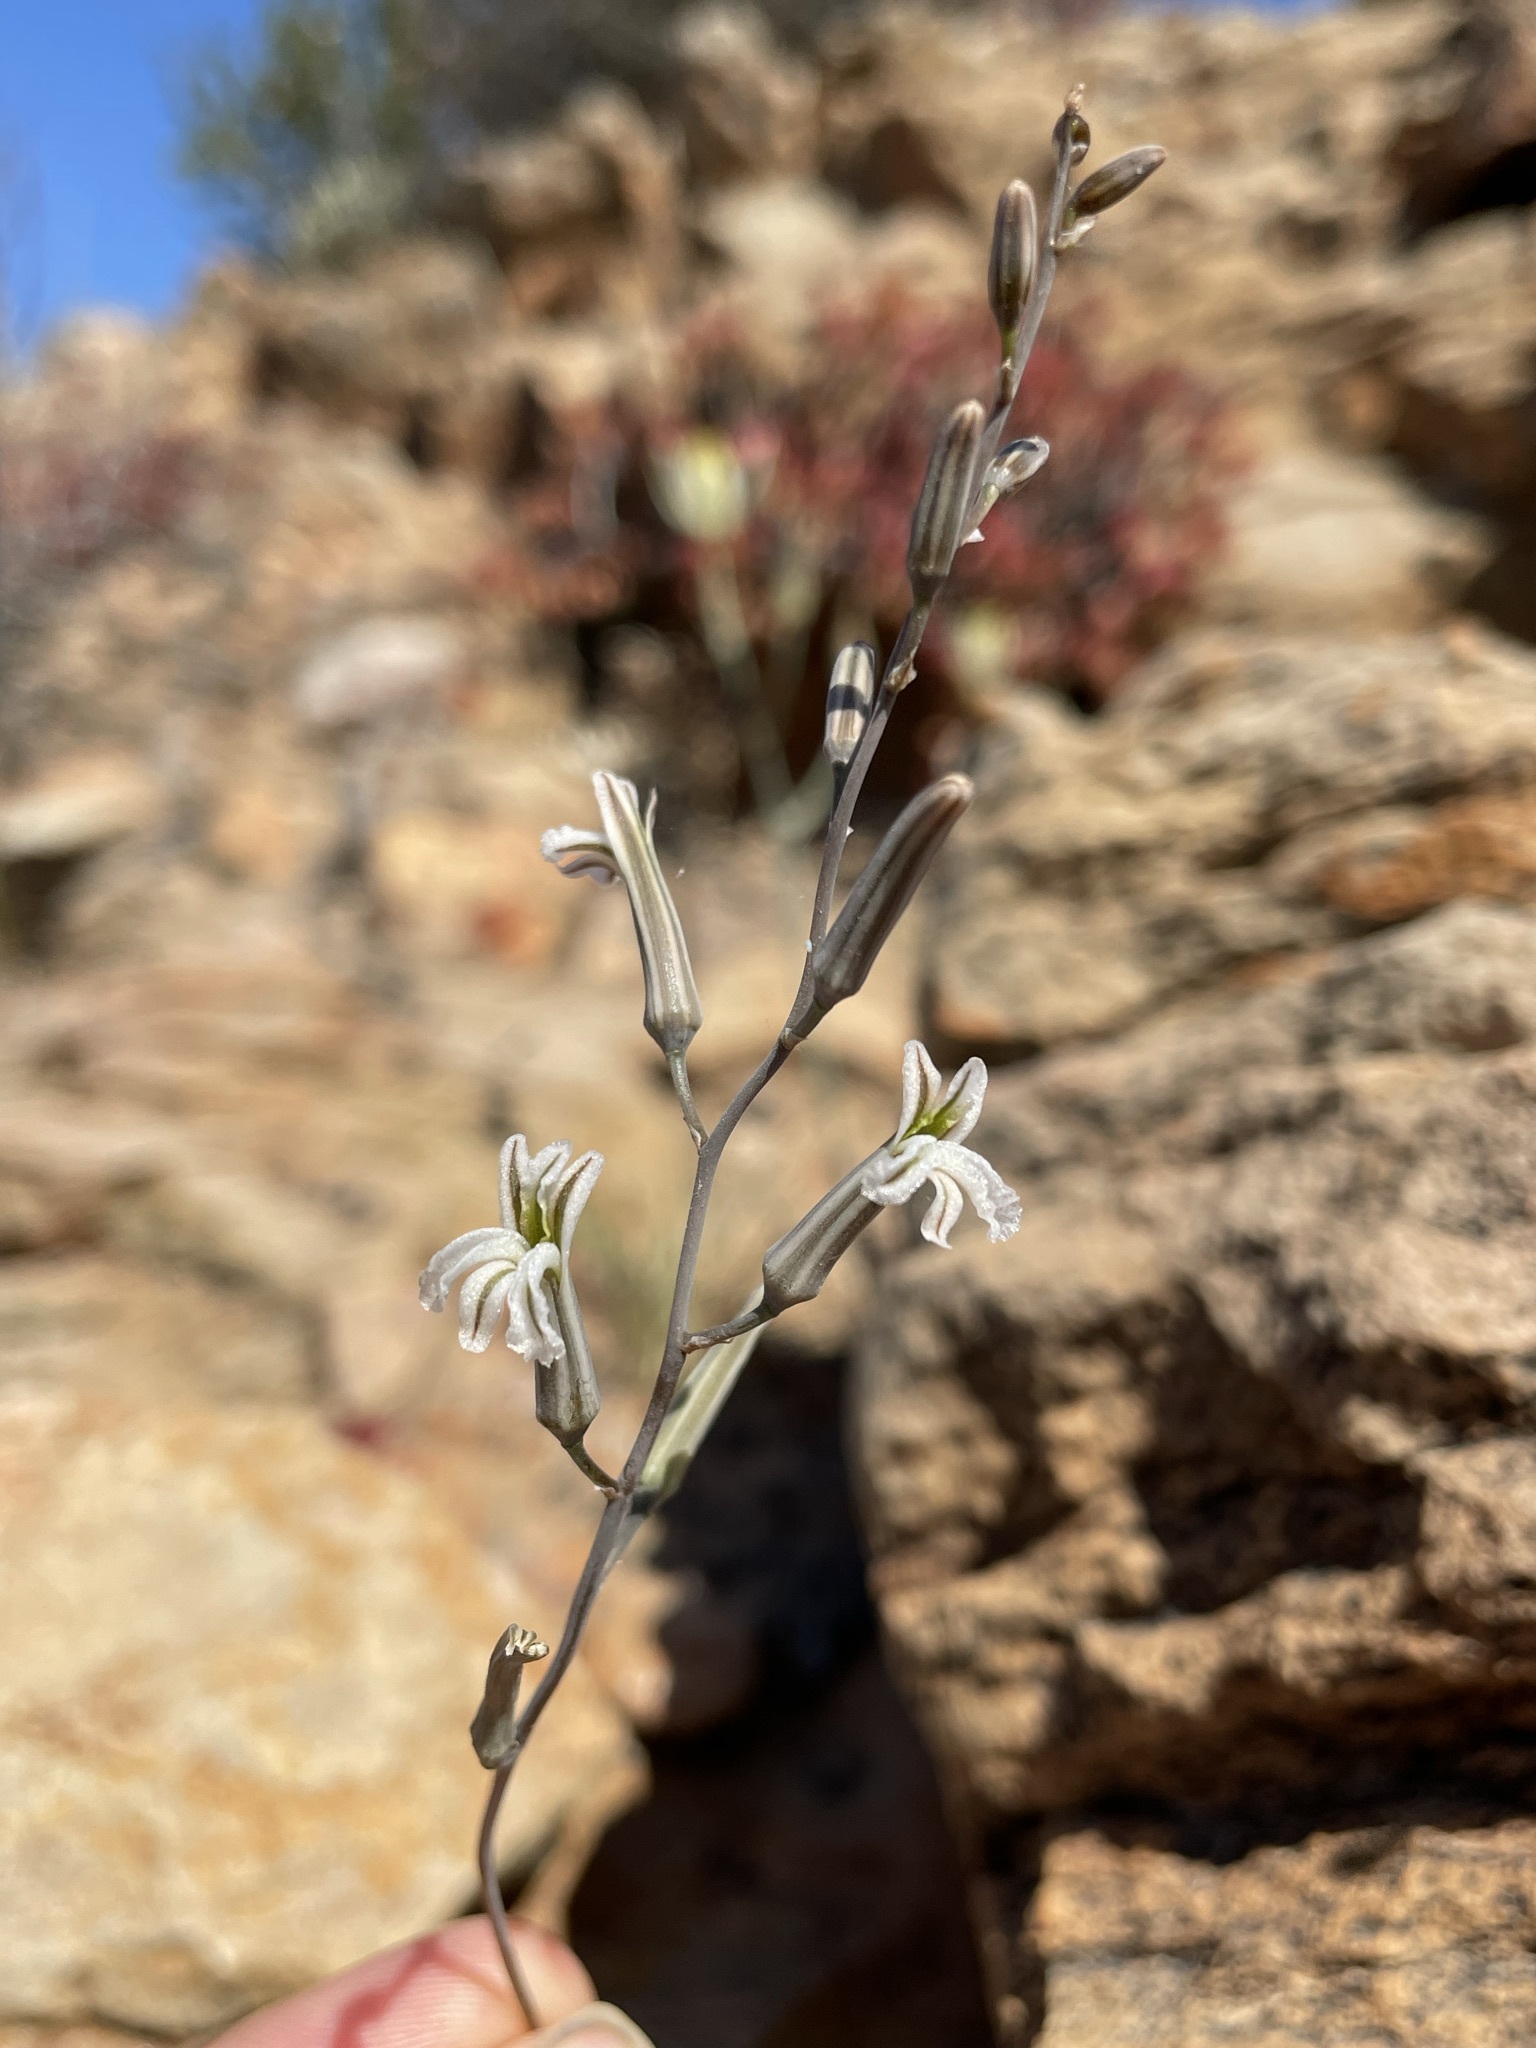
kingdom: Plantae
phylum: Tracheophyta
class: Liliopsida
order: Asparagales
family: Asphodelaceae
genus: Haworthiopsis
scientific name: Haworthiopsis viscosa
